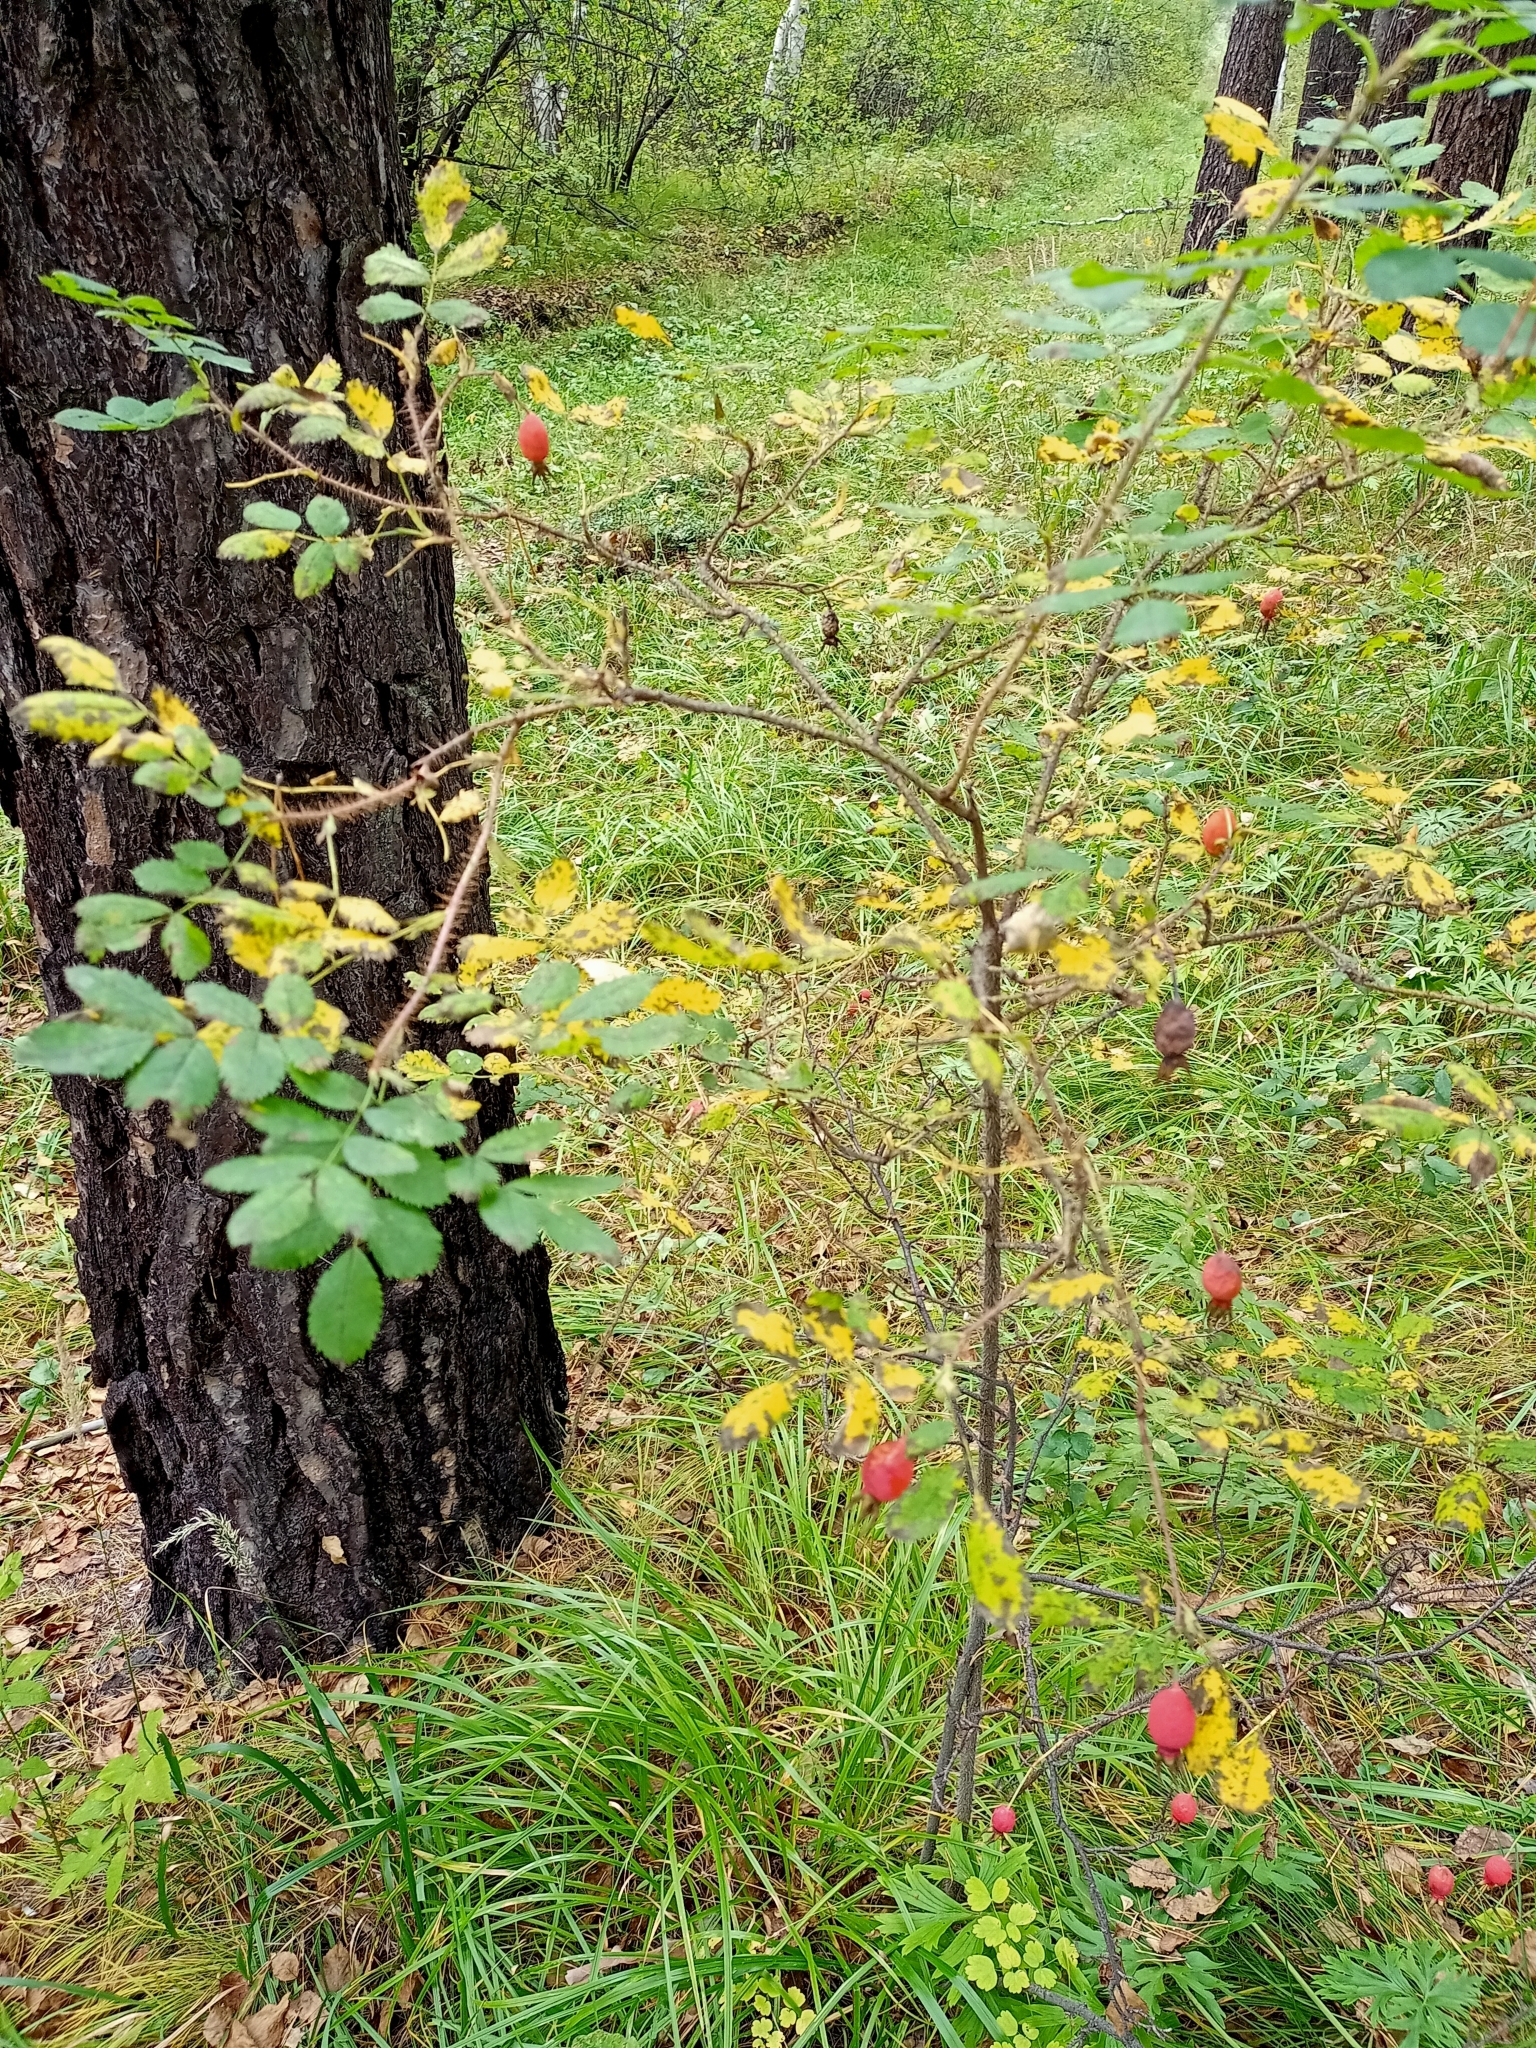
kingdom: Plantae
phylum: Tracheophyta
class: Magnoliopsida
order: Rosales
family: Rosaceae
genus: Rosa
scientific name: Rosa acicularis
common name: Prickly rose
